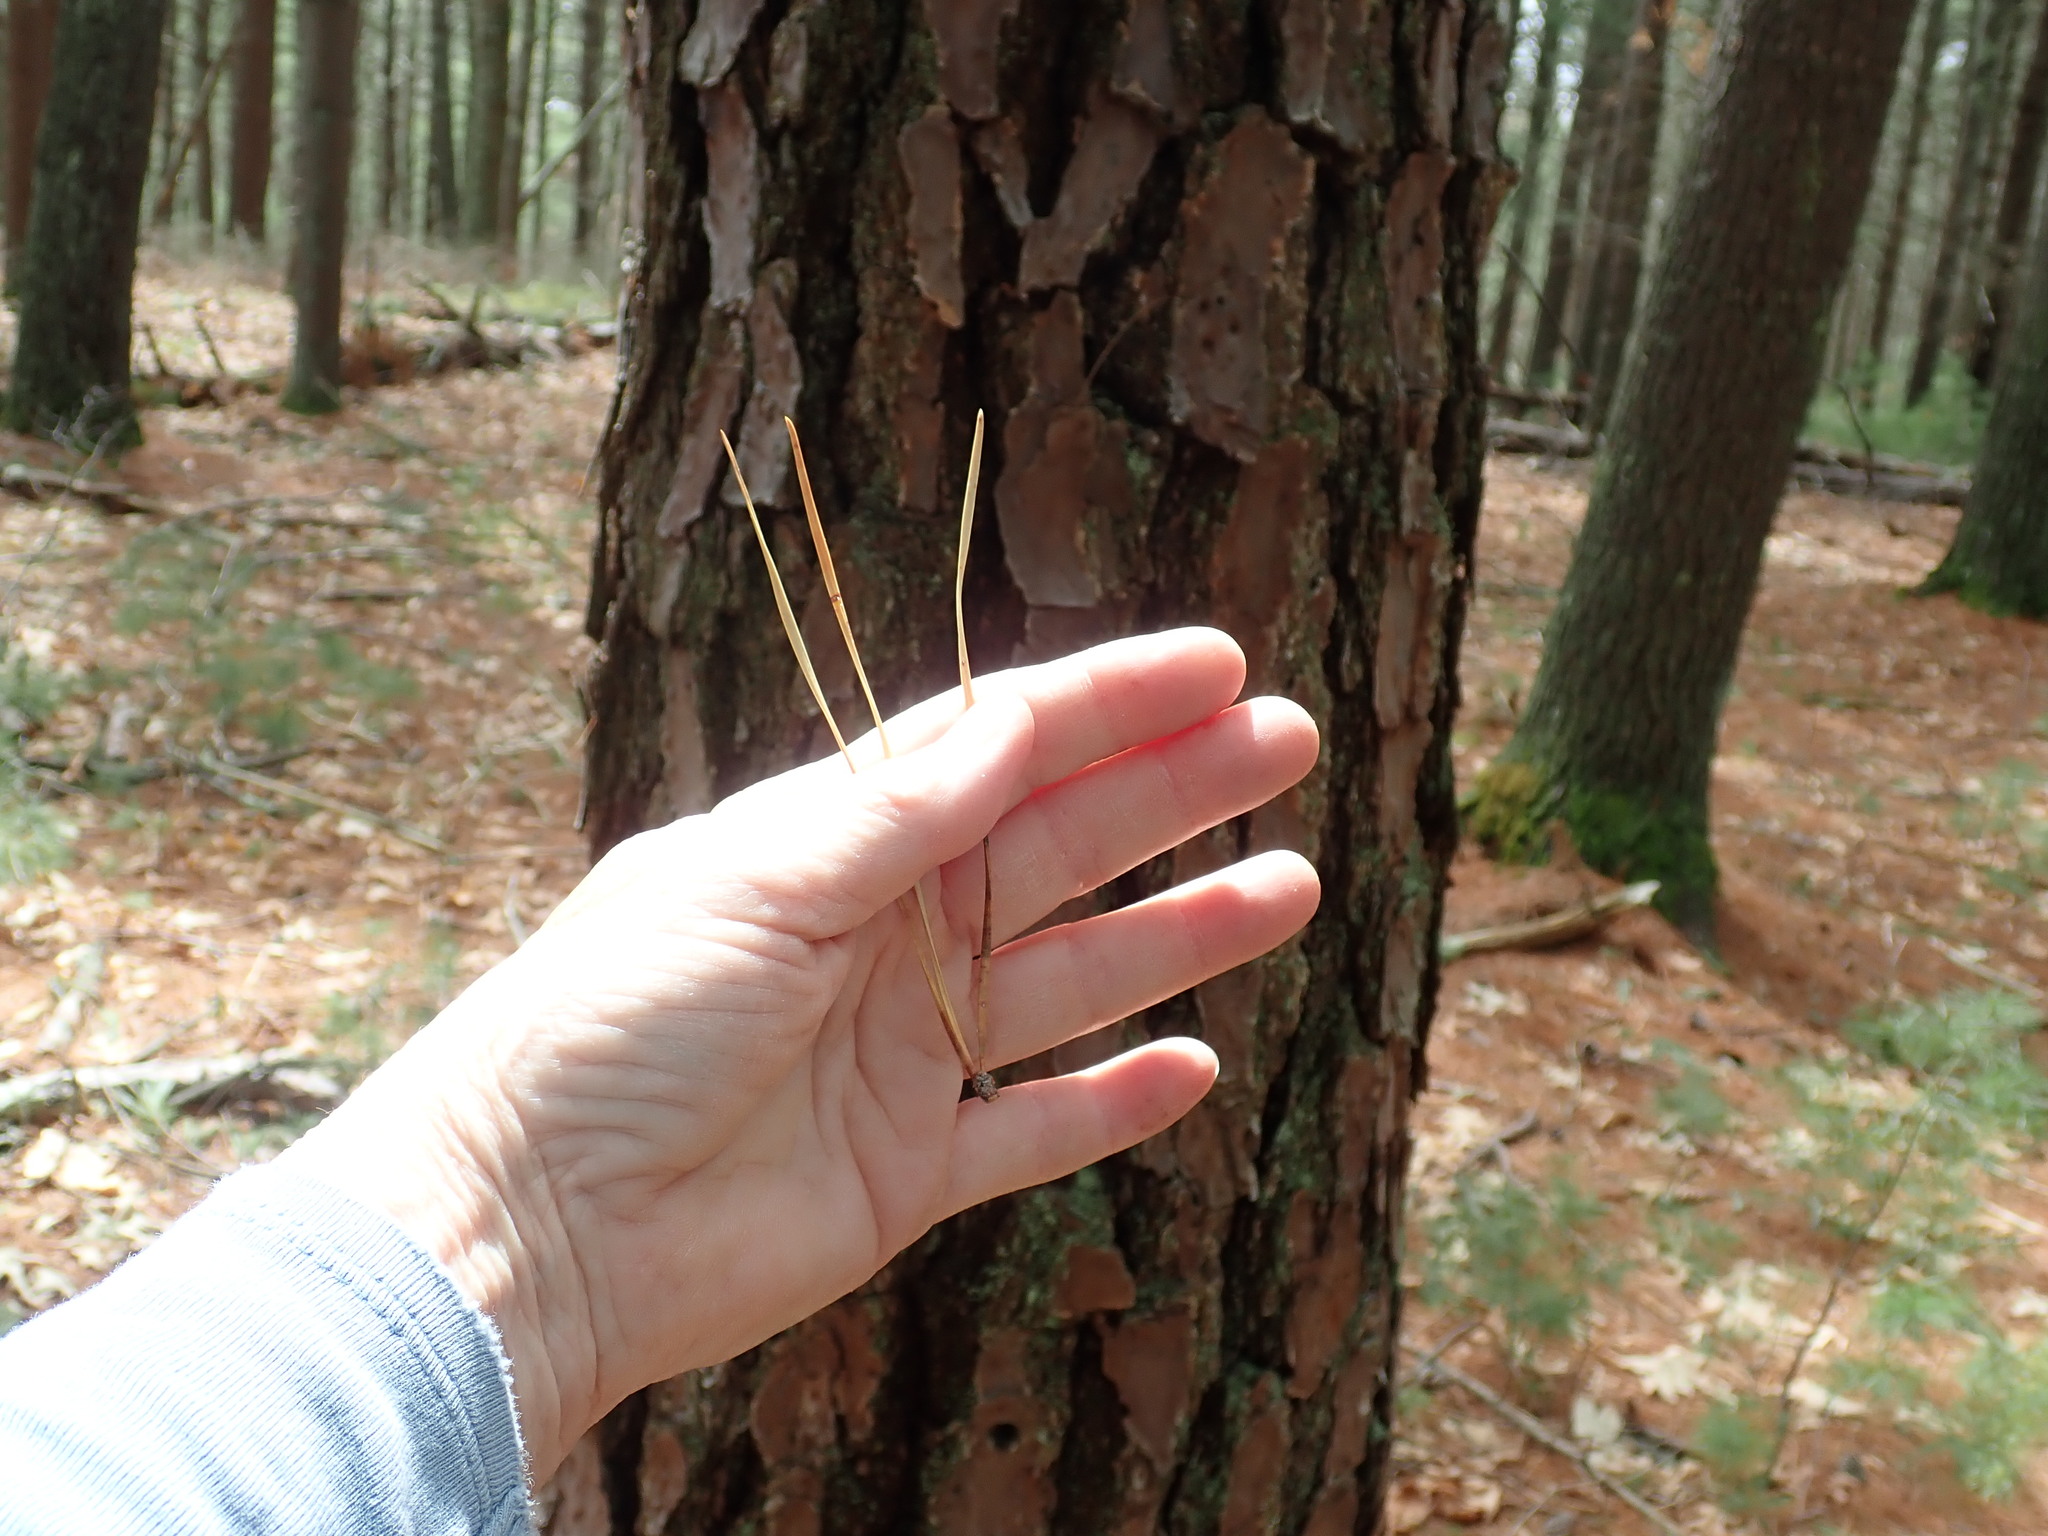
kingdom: Plantae
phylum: Tracheophyta
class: Pinopsida
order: Pinales
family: Pinaceae
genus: Pinus
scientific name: Pinus rigida
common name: Pitch pine
